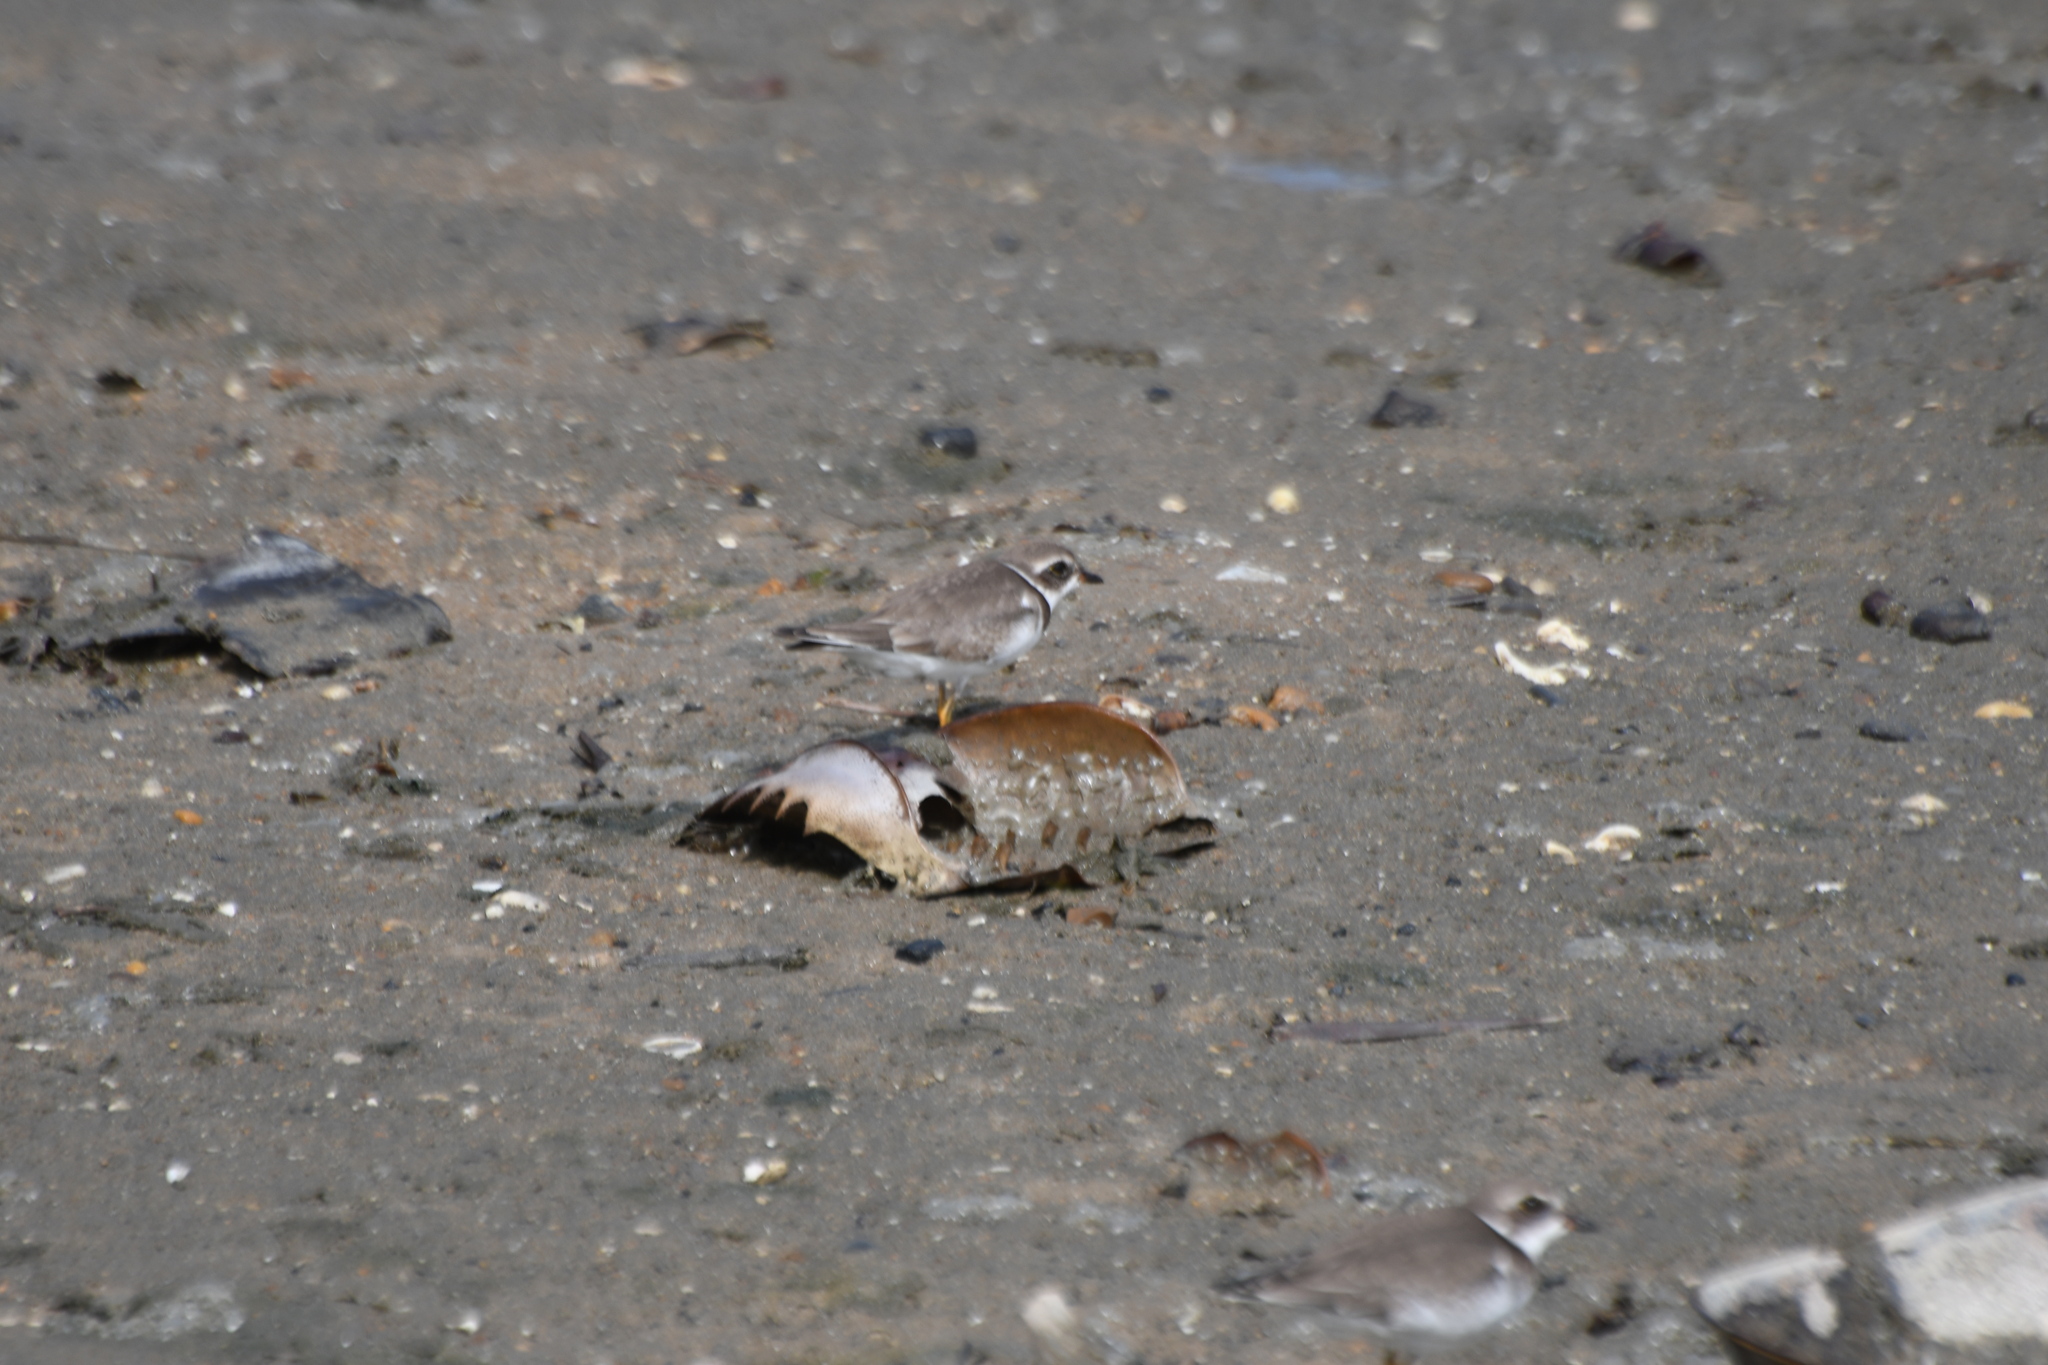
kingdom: Animalia
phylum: Chordata
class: Aves
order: Charadriiformes
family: Charadriidae
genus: Charadrius
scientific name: Charadrius semipalmatus
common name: Semipalmated plover
